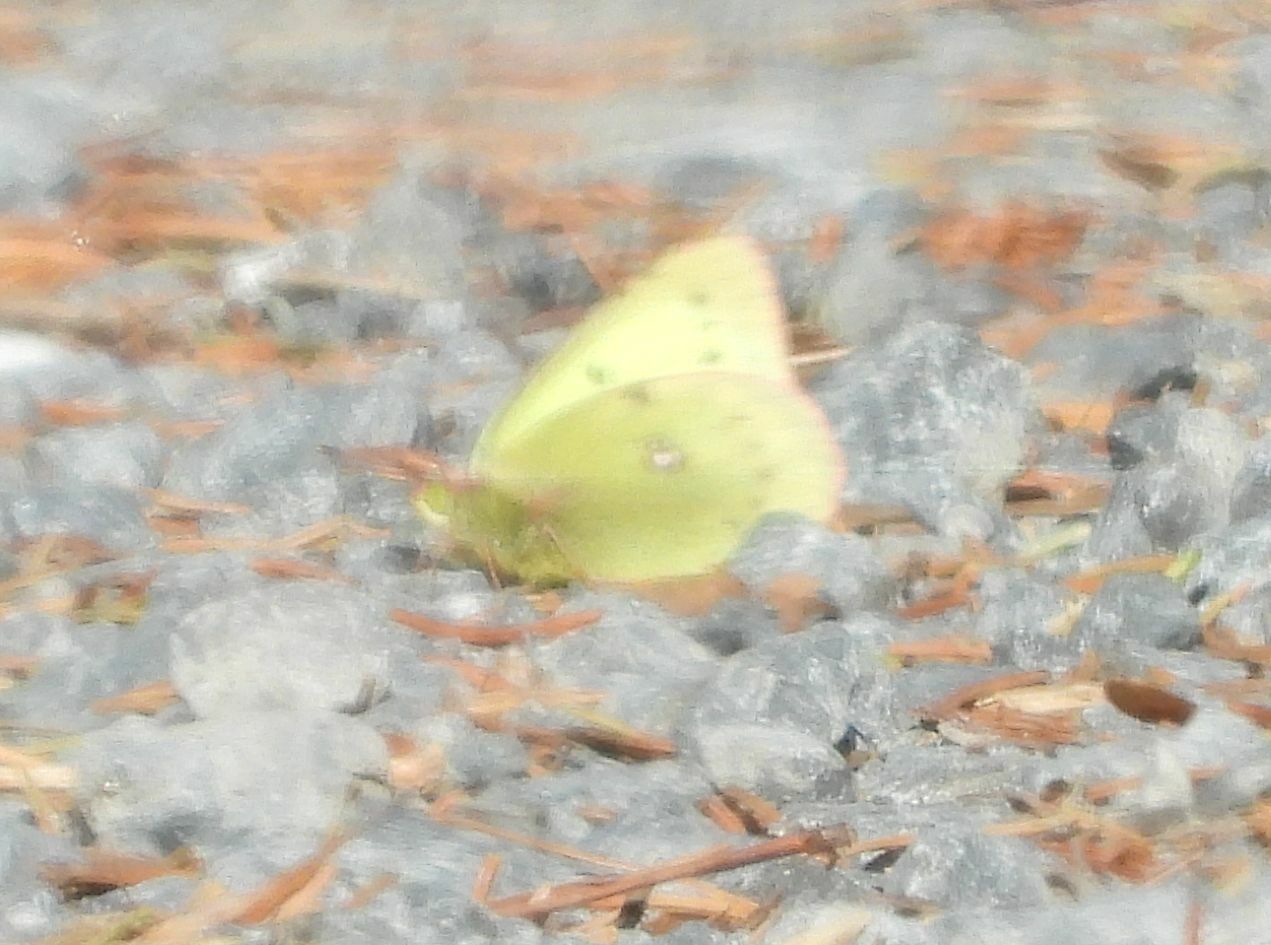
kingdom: Animalia
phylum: Arthropoda
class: Insecta
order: Lepidoptera
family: Pieridae
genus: Colias
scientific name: Colias philodice
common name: Clouded sulphur
